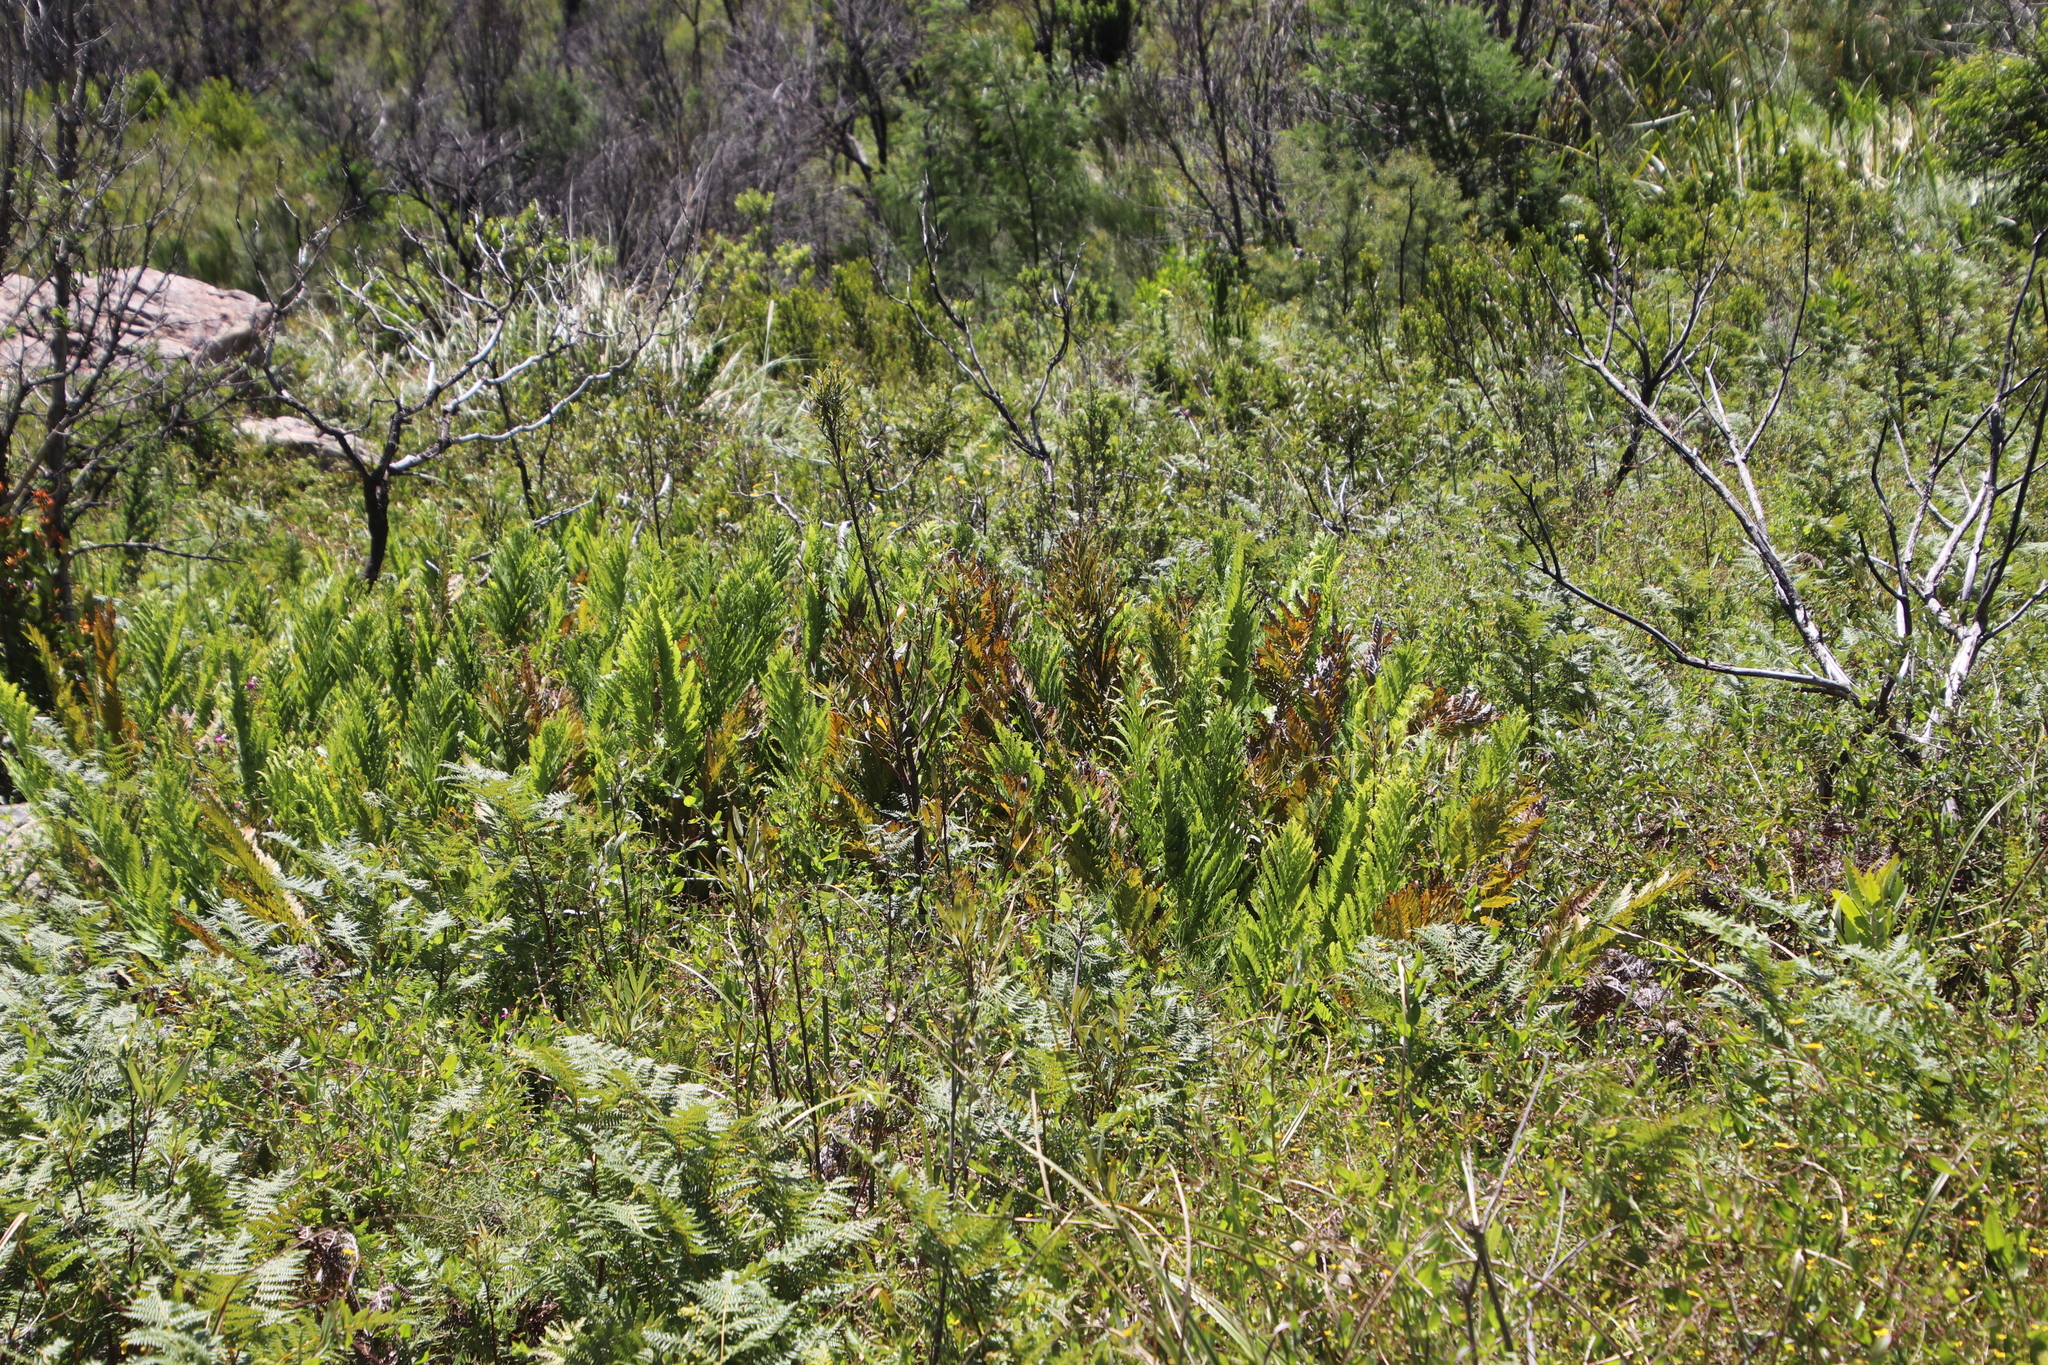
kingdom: Plantae
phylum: Tracheophyta
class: Polypodiopsida
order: Osmundales
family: Osmundaceae
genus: Todea
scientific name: Todea barbara
